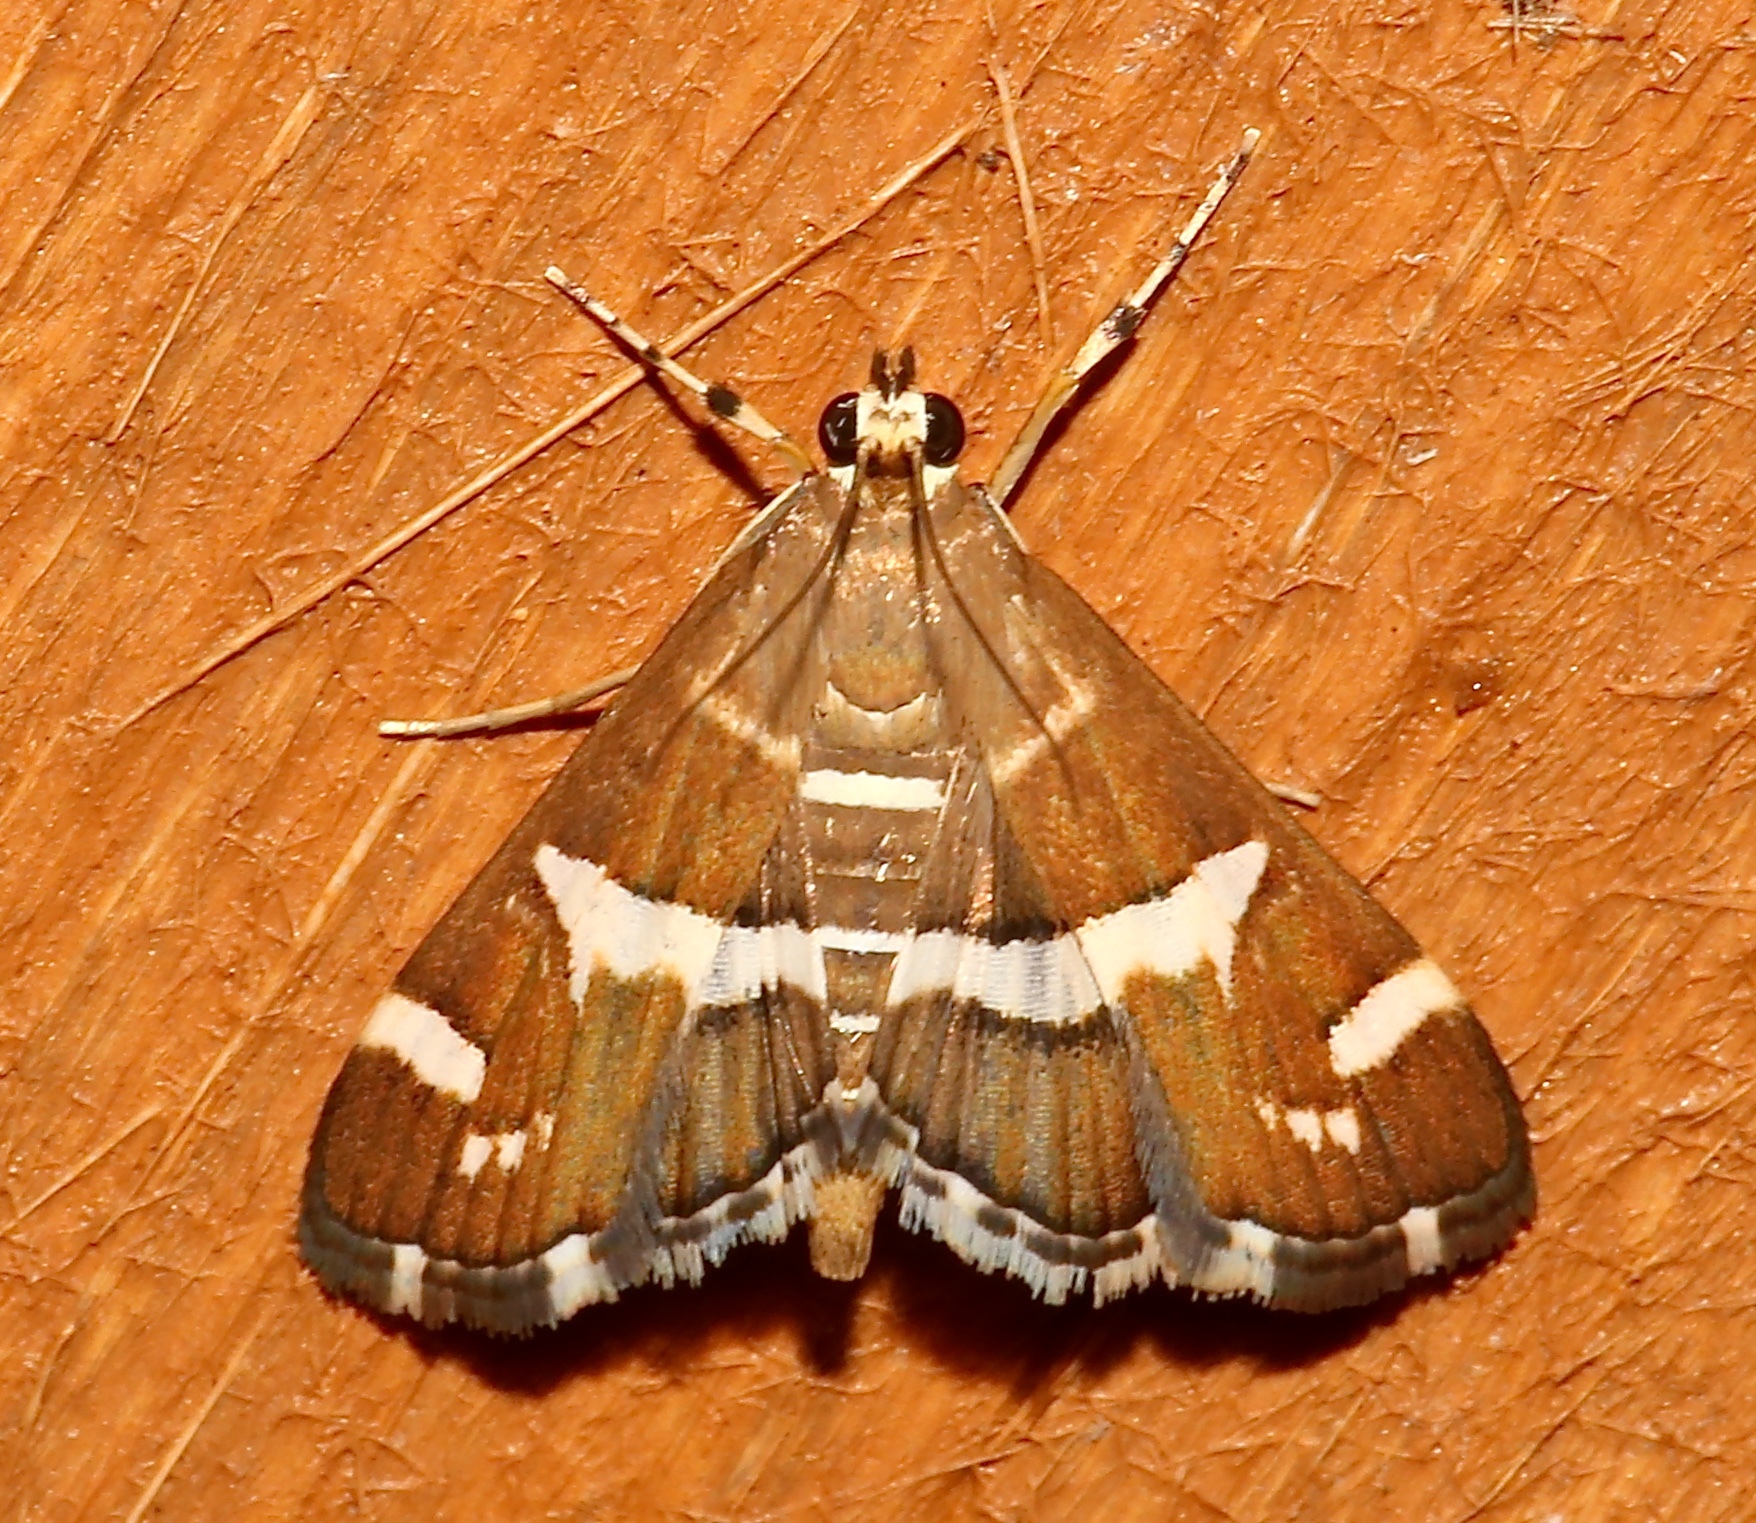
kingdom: Animalia
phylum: Arthropoda
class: Insecta
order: Lepidoptera
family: Crambidae
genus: Spoladea
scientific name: Spoladea recurvalis
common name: Beet webworm moth
